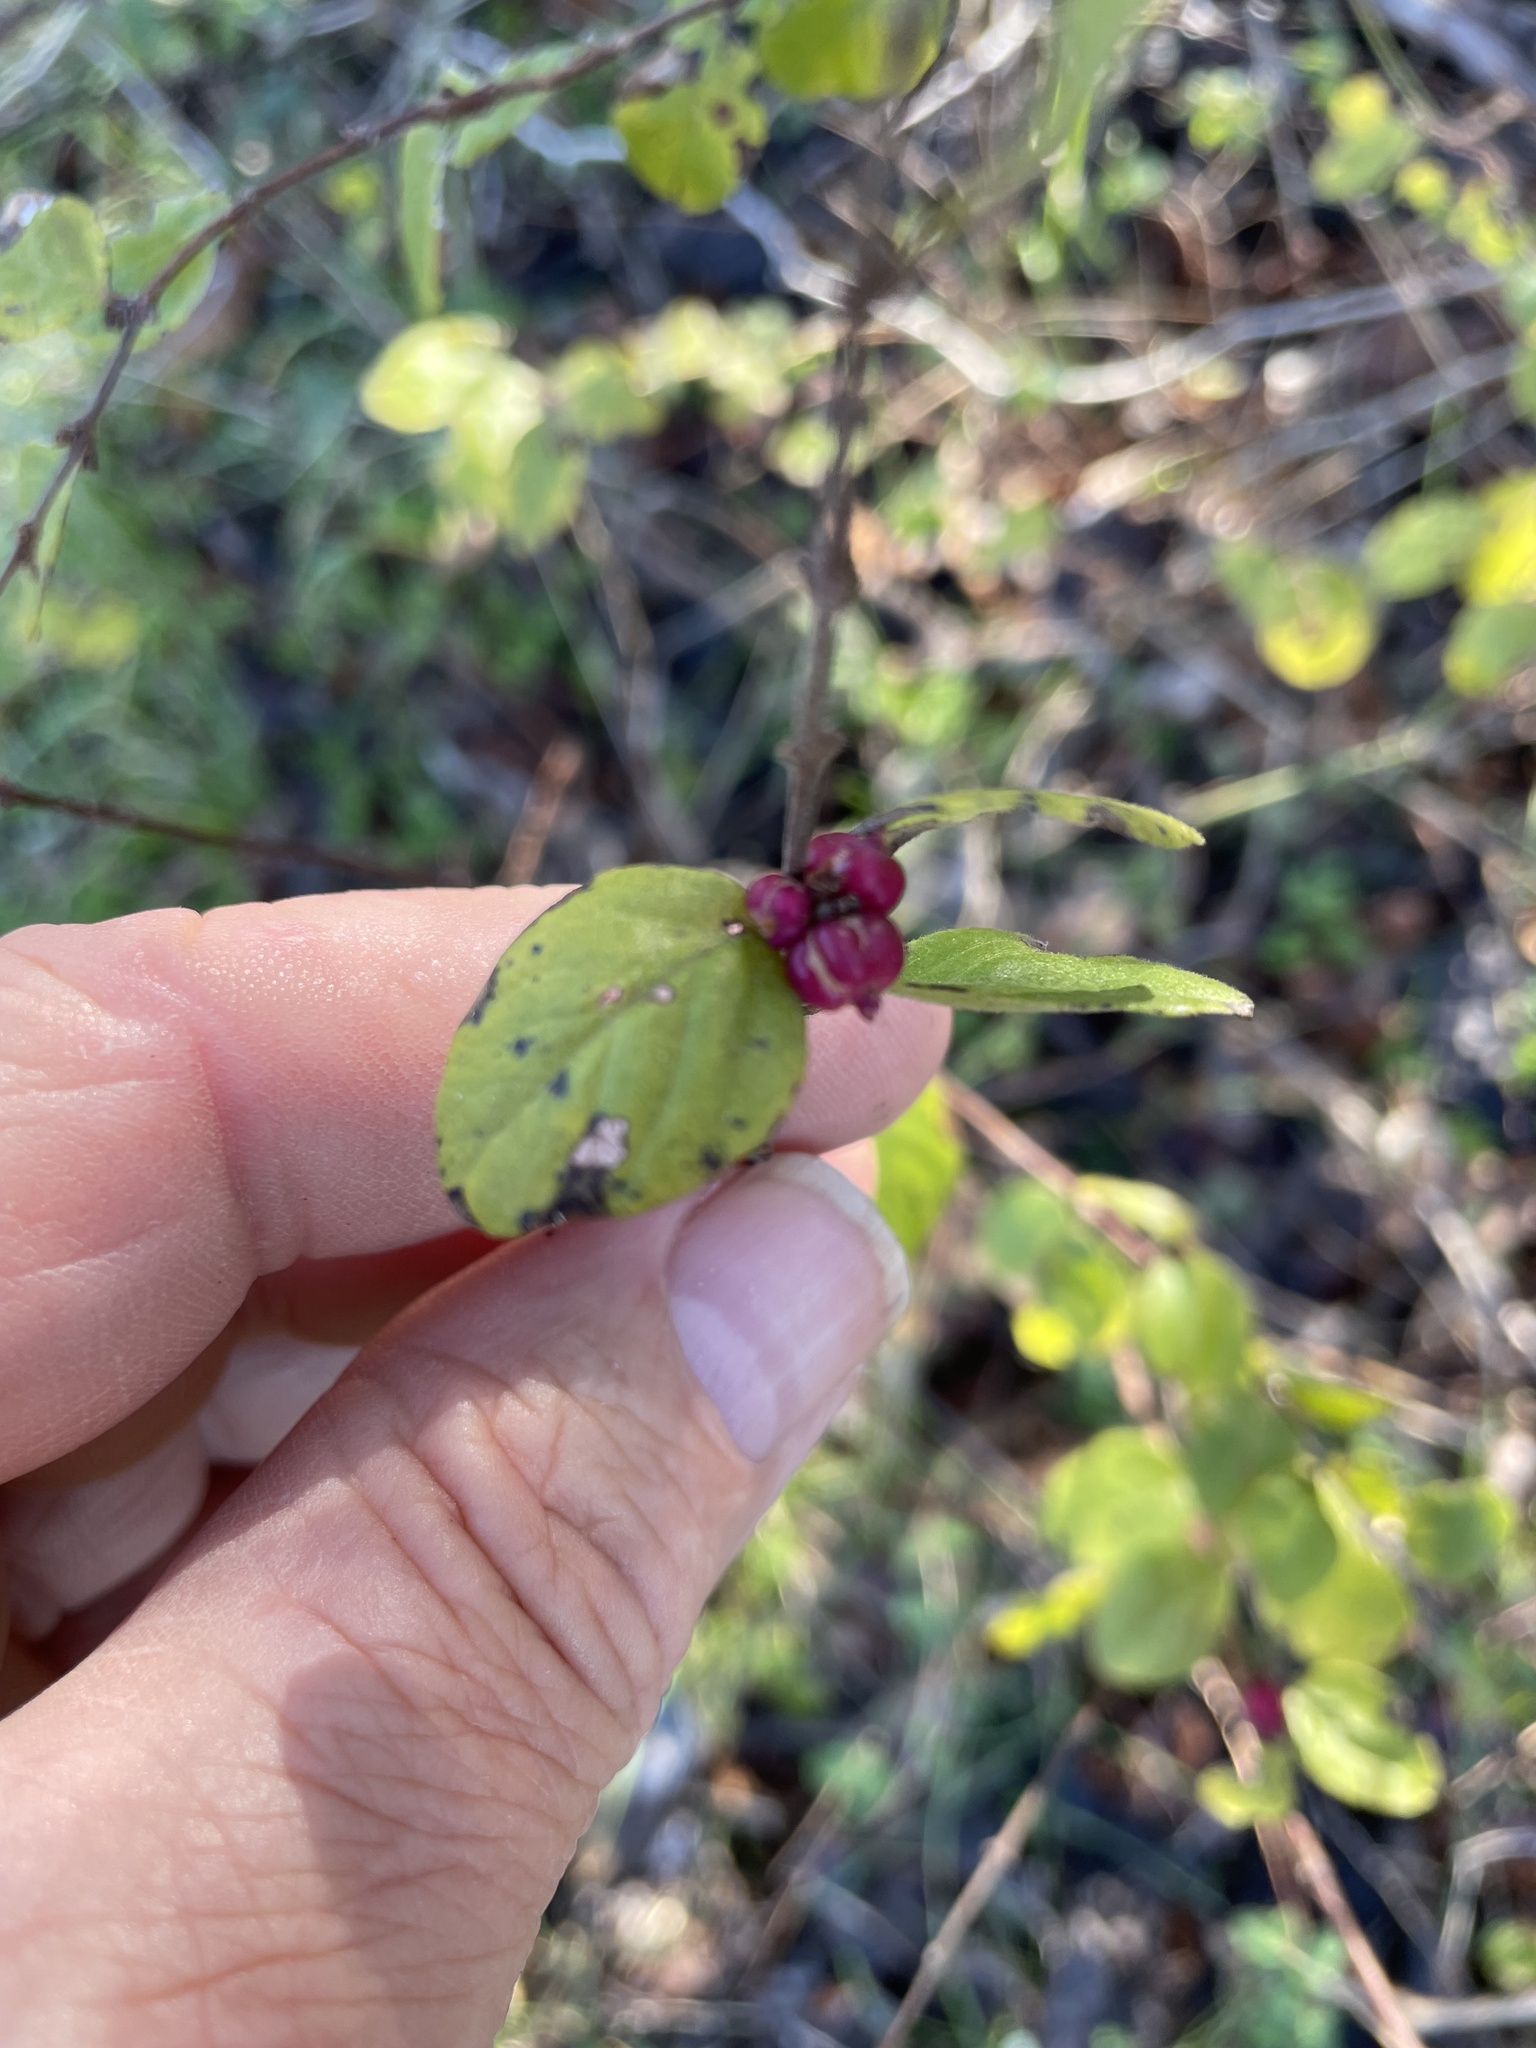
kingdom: Plantae
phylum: Tracheophyta
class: Magnoliopsida
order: Dipsacales
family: Caprifoliaceae
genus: Symphoricarpos
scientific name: Symphoricarpos orbiculatus
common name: Coralberry
